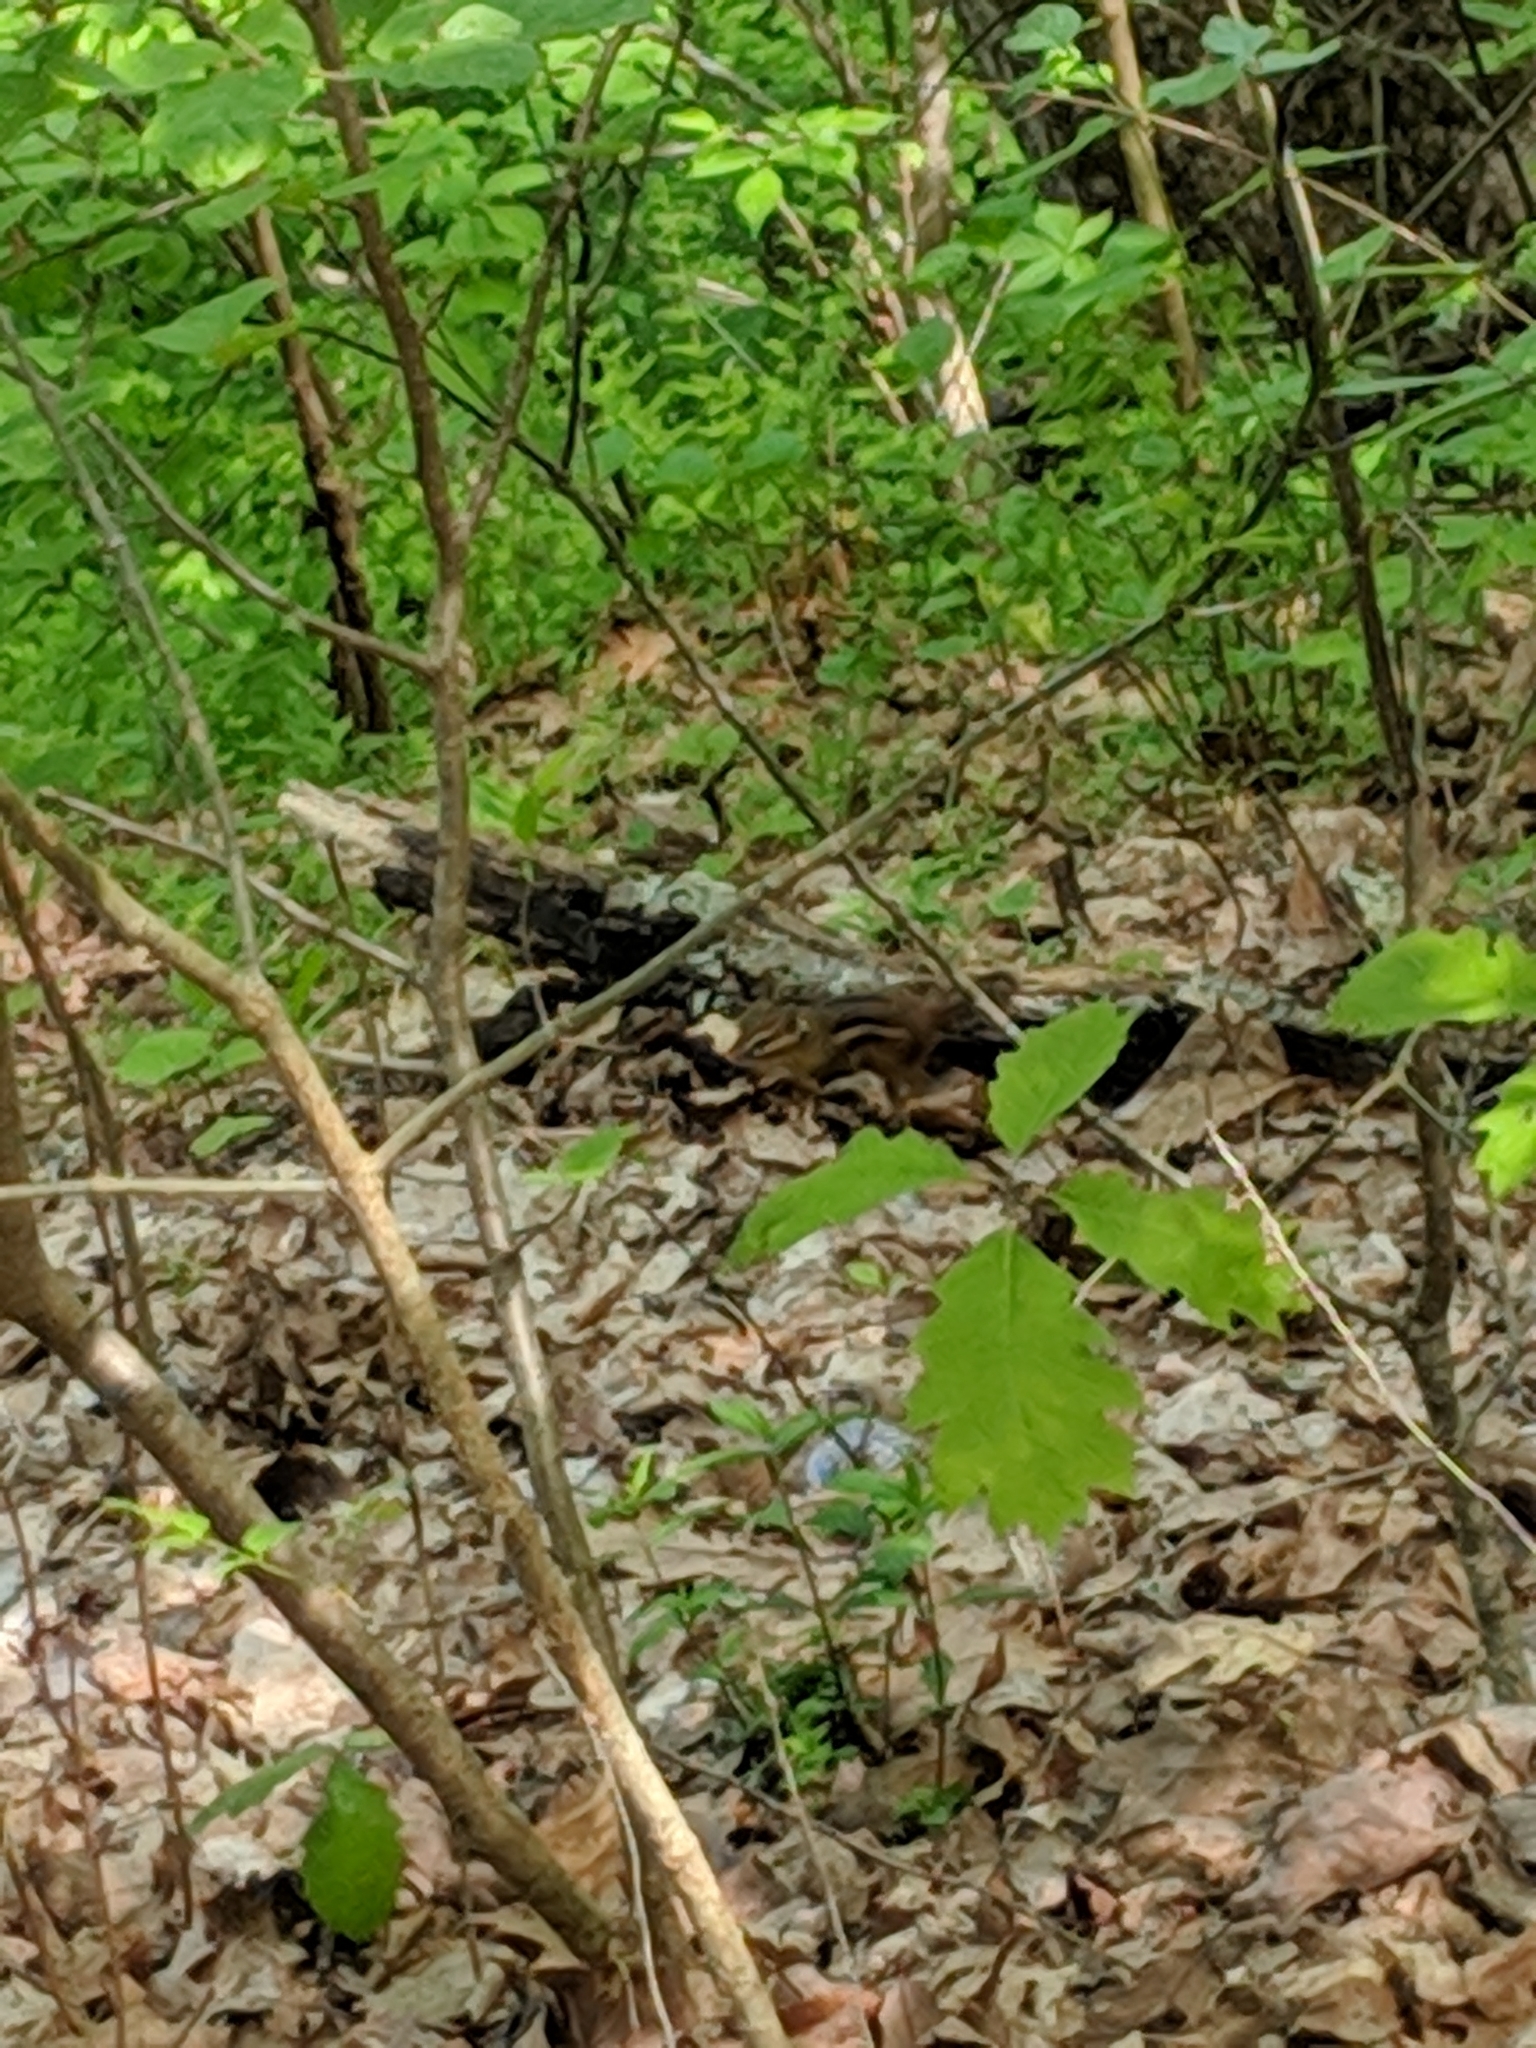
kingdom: Animalia
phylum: Chordata
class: Mammalia
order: Rodentia
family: Sciuridae
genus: Tamias
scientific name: Tamias striatus
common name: Eastern chipmunk
